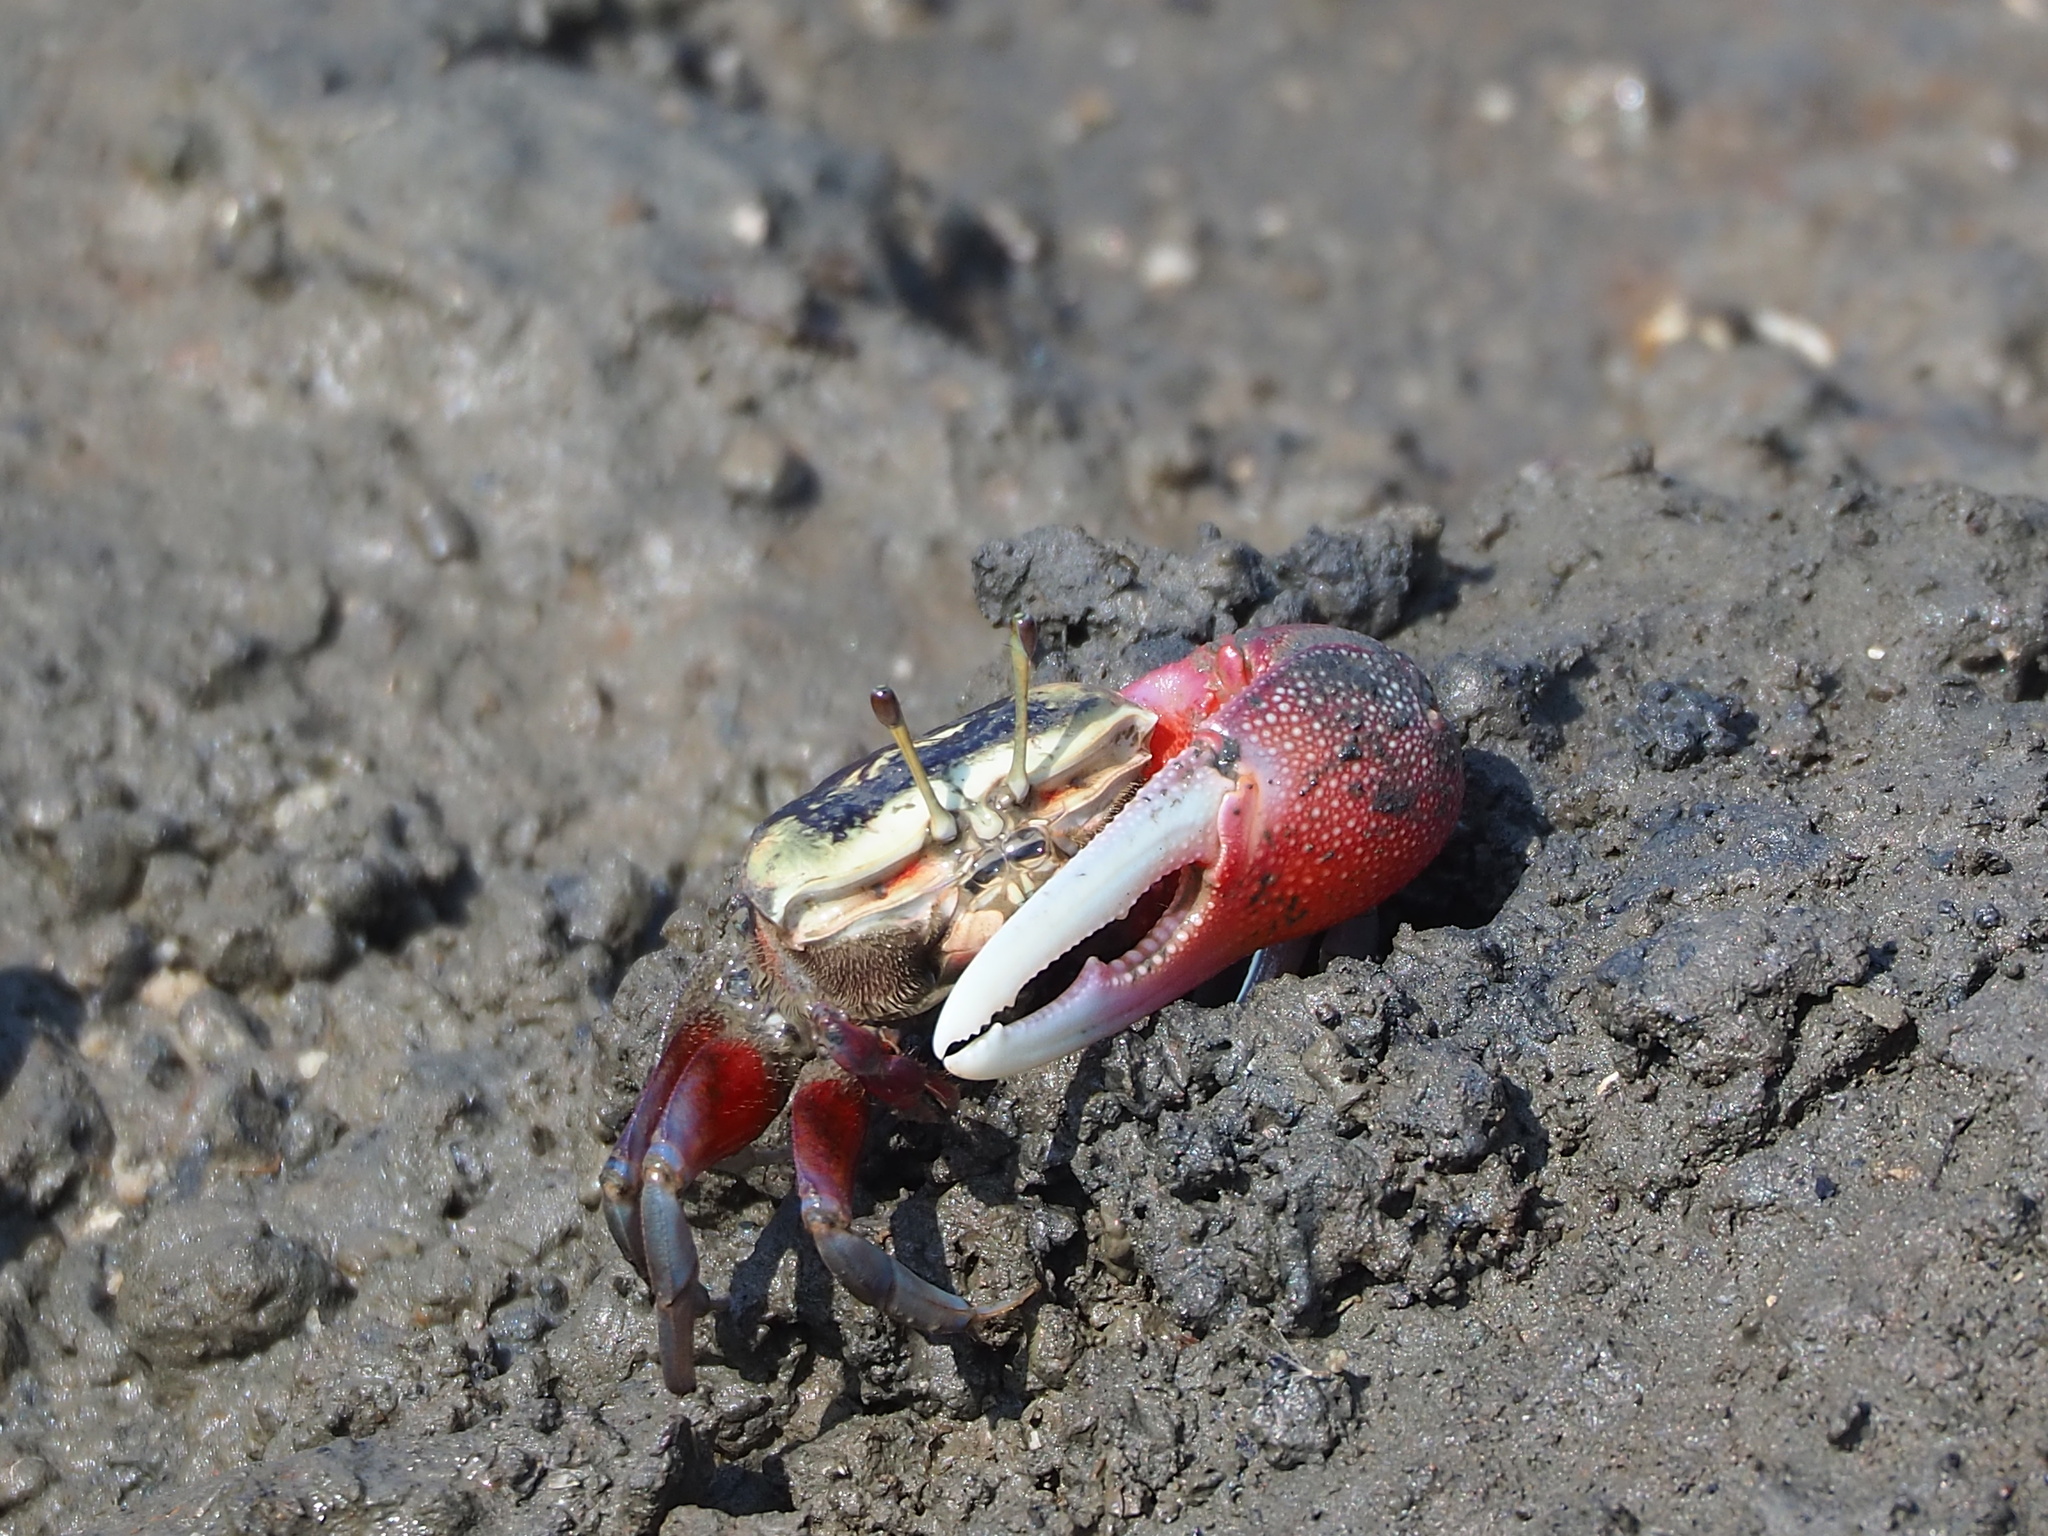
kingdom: Animalia
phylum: Arthropoda
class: Malacostraca
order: Decapoda
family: Ocypodidae
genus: Tubuca
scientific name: Tubuca arcuata
